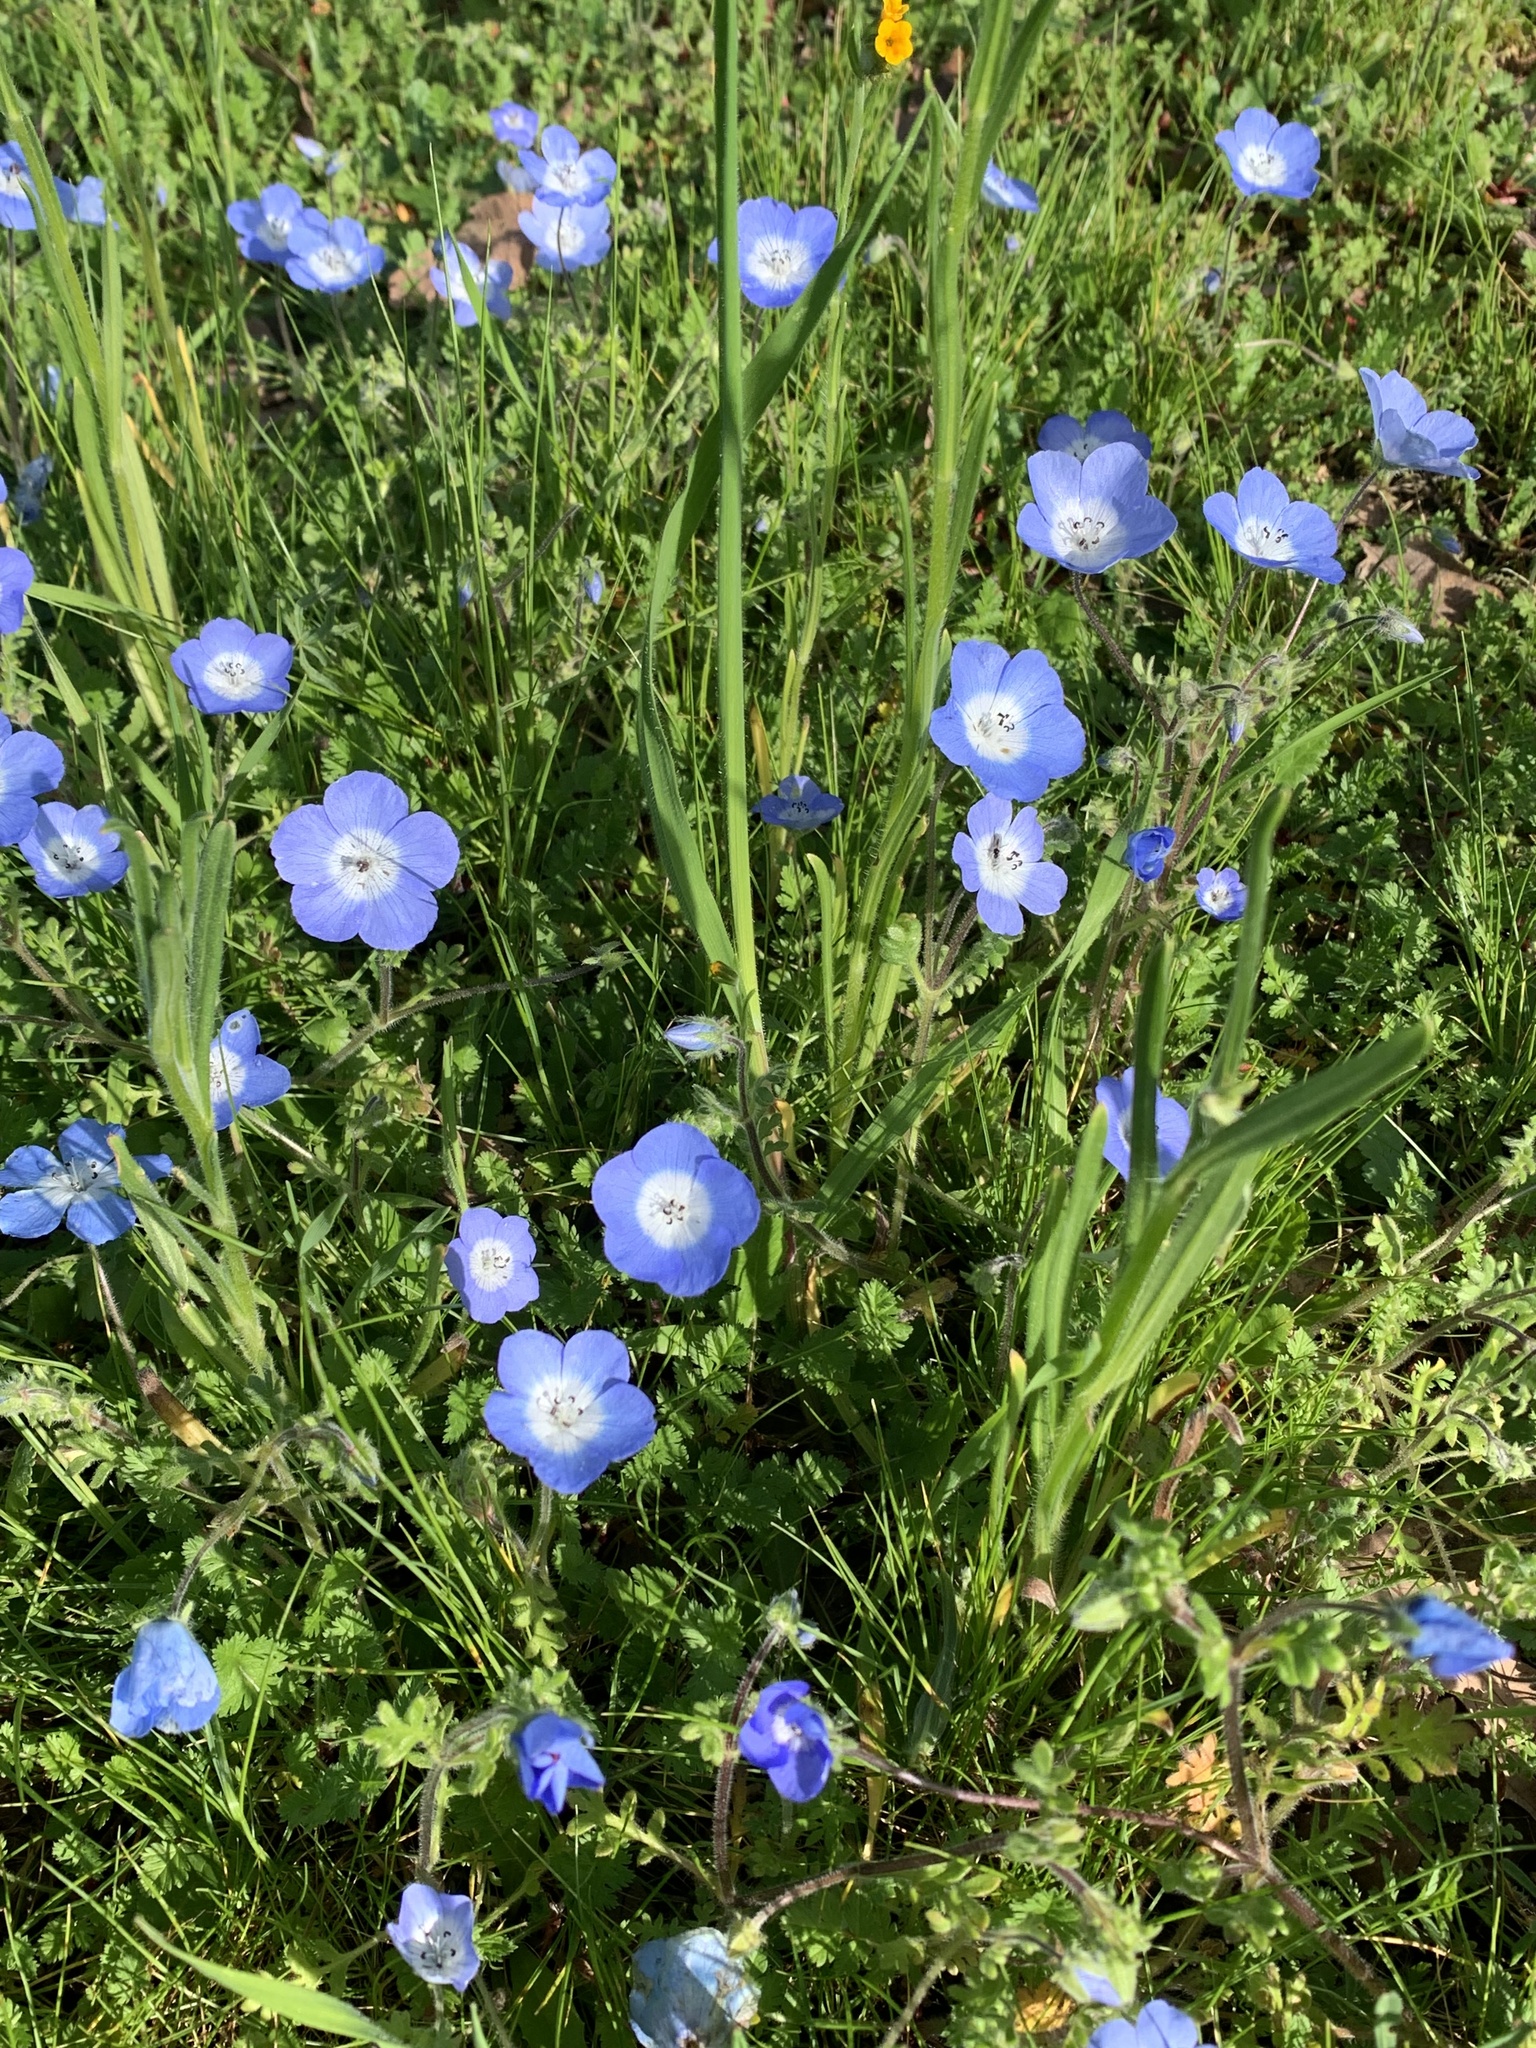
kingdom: Plantae
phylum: Tracheophyta
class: Magnoliopsida
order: Boraginales
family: Hydrophyllaceae
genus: Nemophila
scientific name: Nemophila menziesii
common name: Baby's-blue-eyes
